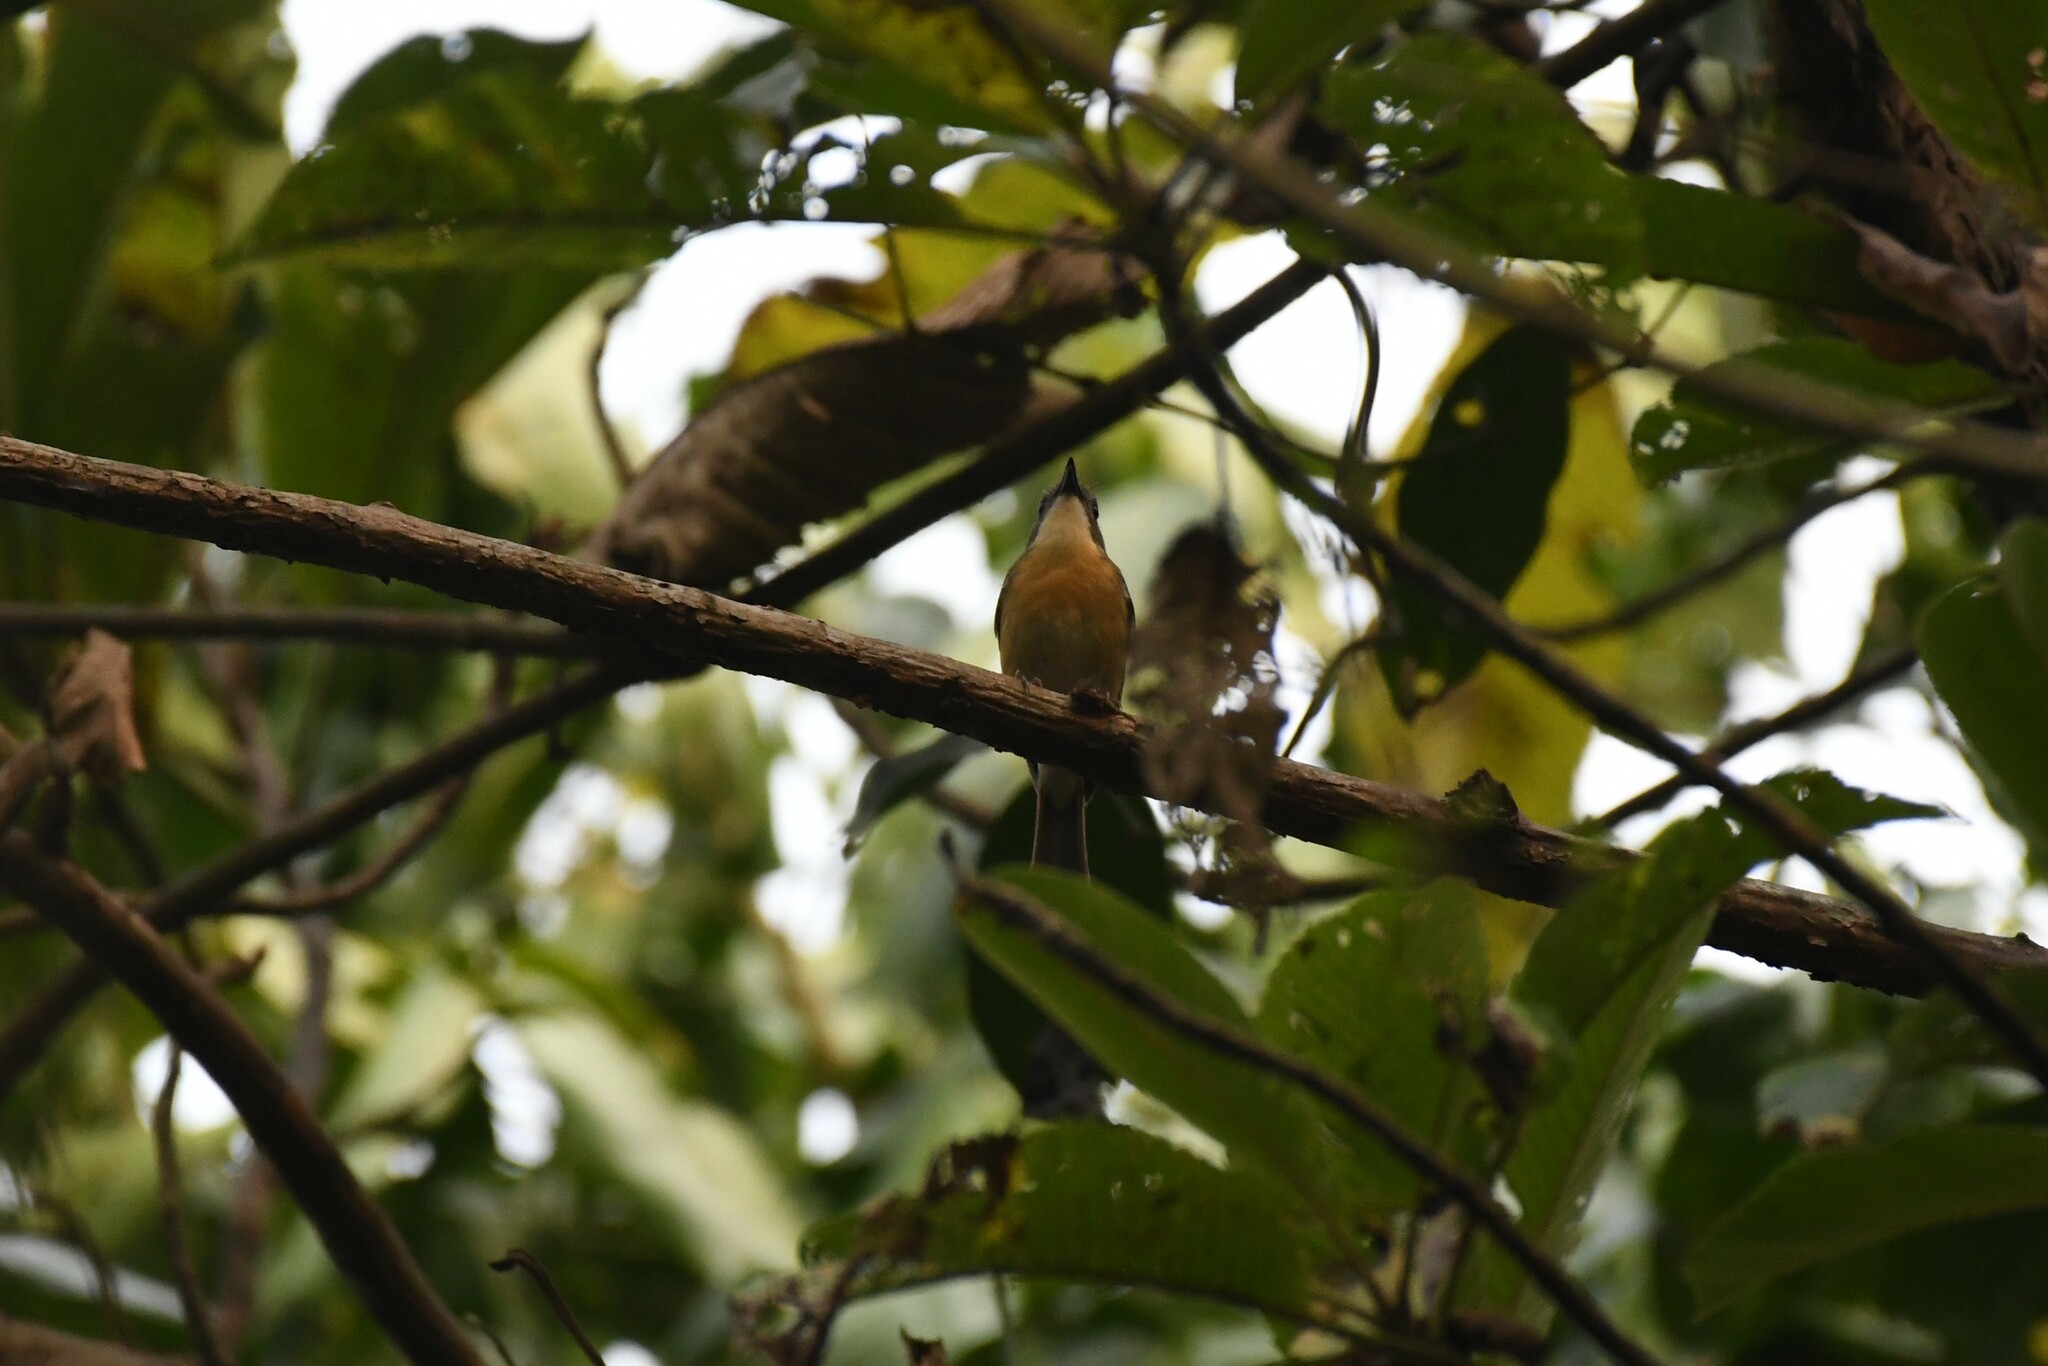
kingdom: Animalia
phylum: Chordata
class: Aves
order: Passeriformes
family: Muscicapidae
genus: Cyornis
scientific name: Cyornis poliogenys
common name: Pale-chinned blue flycatcher
